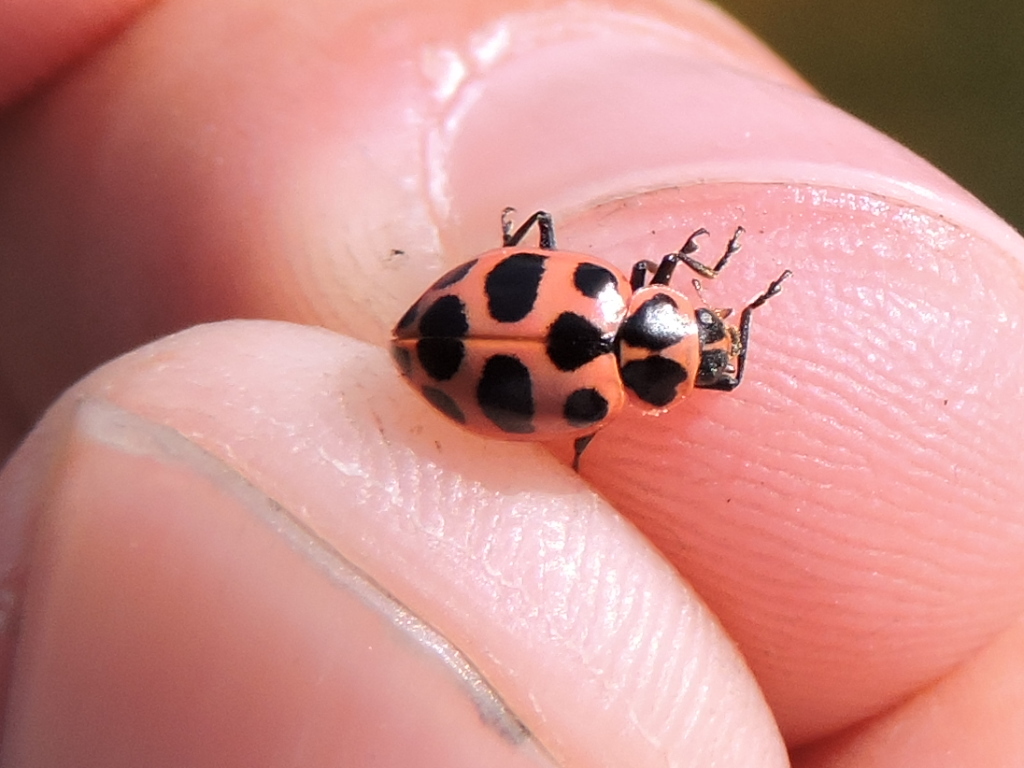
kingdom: Animalia
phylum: Arthropoda
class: Insecta
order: Coleoptera
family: Coccinellidae
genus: Coleomegilla
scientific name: Coleomegilla maculata
